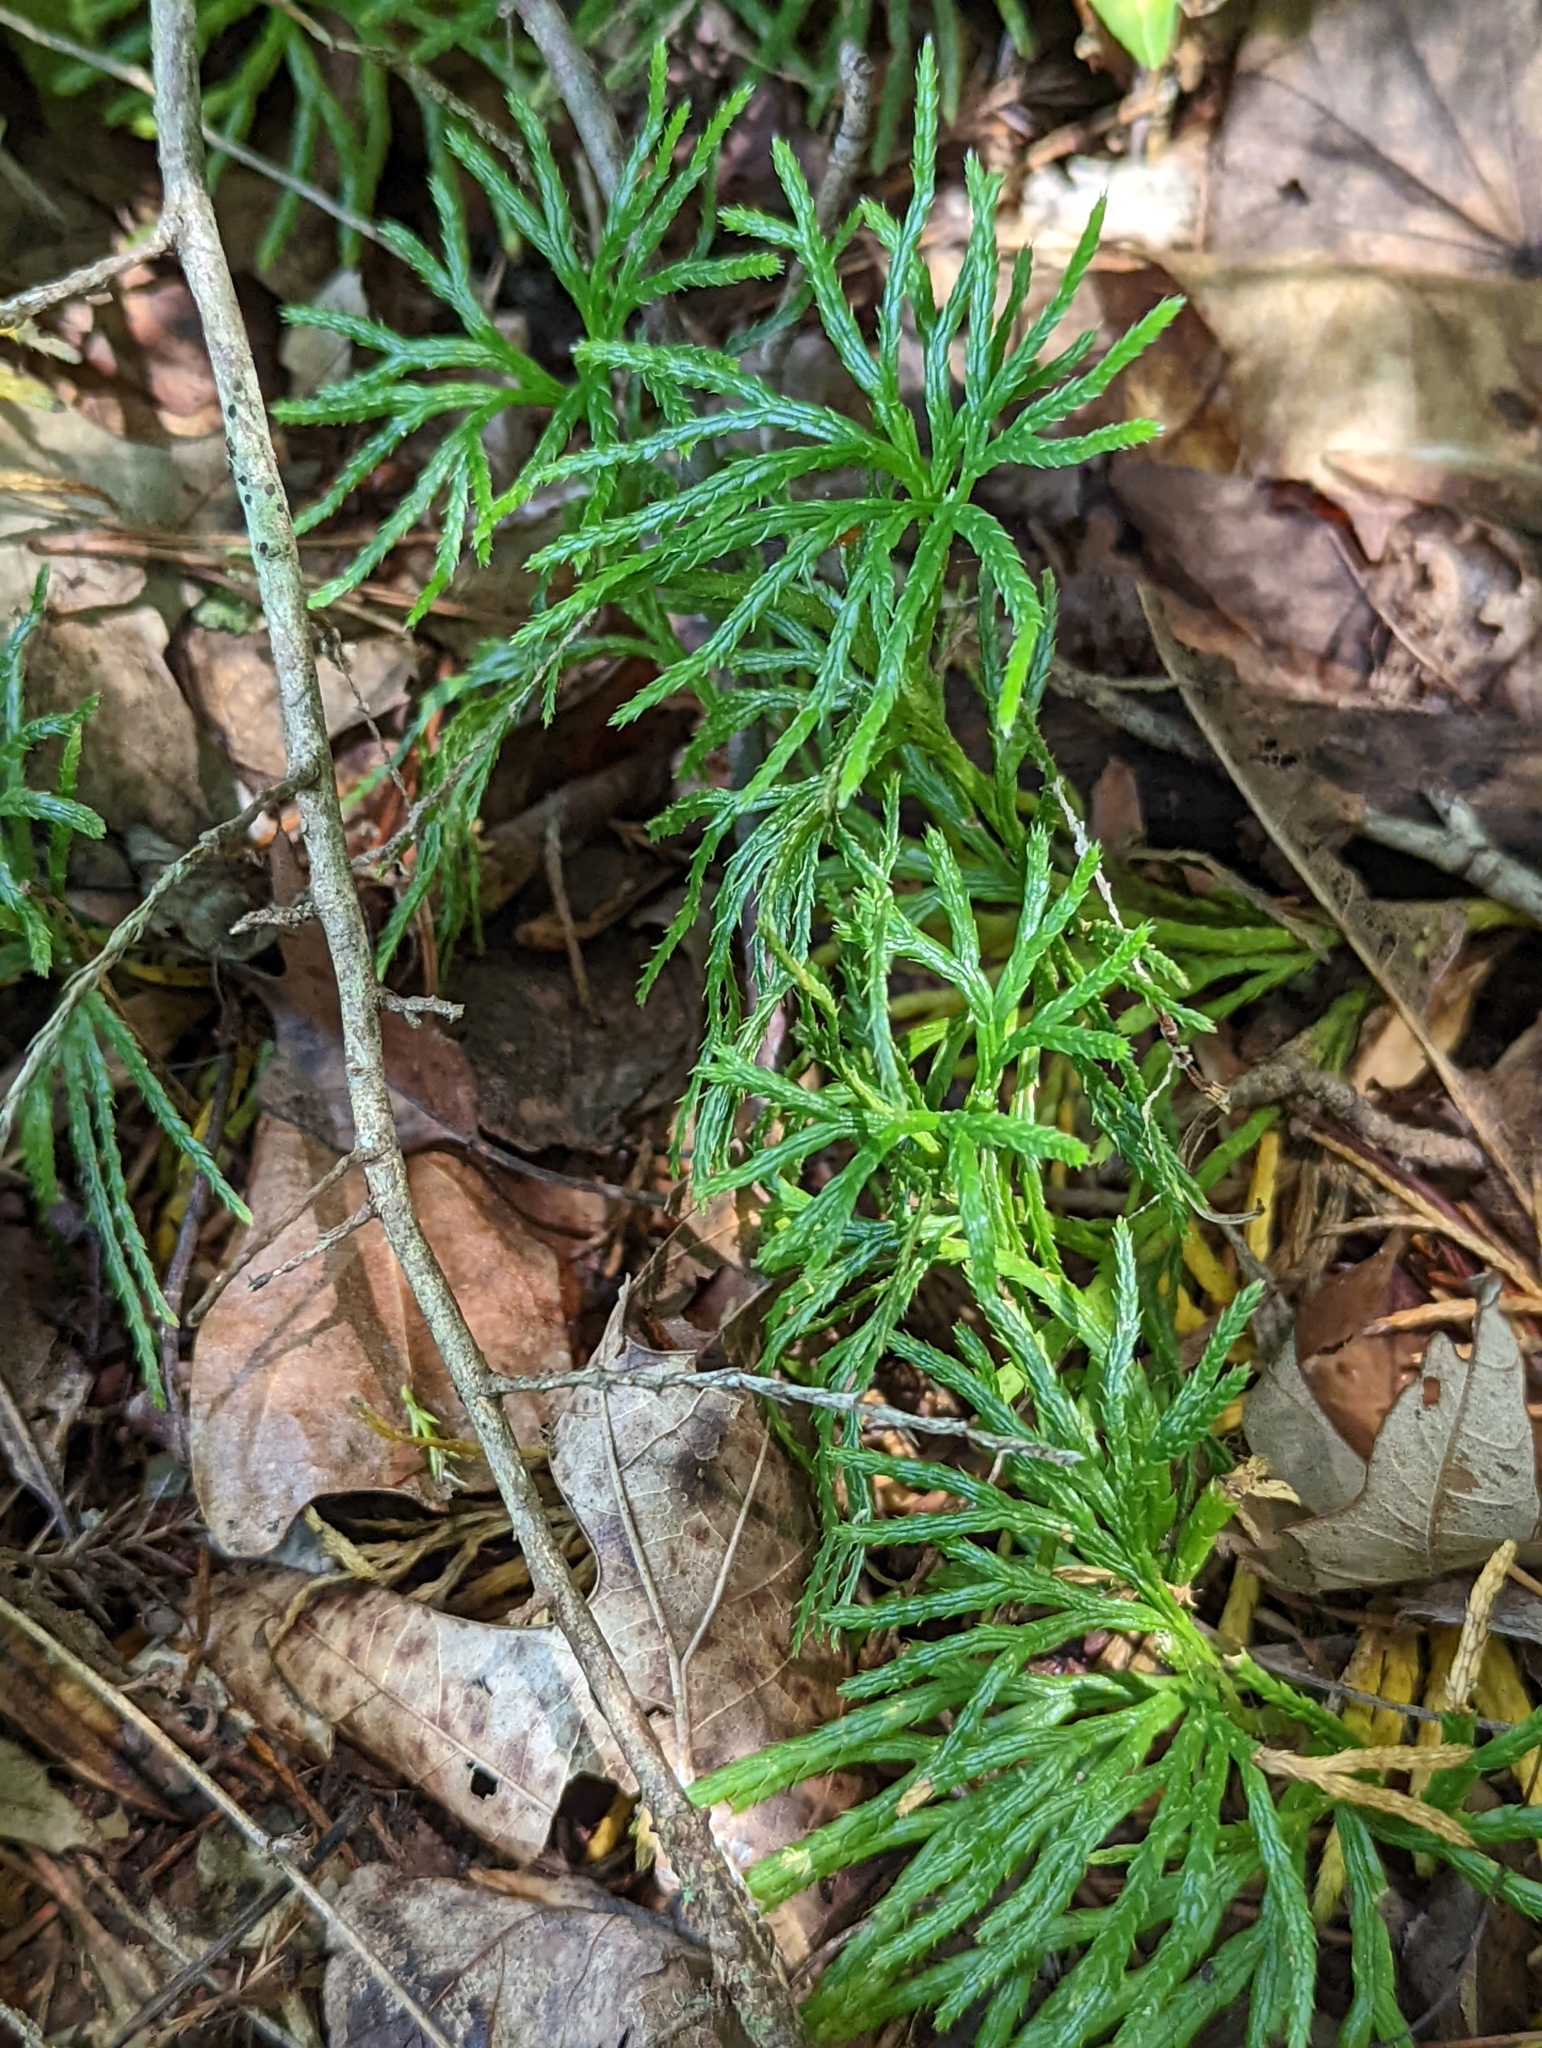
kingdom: Plantae
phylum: Tracheophyta
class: Lycopodiopsida
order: Lycopodiales
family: Lycopodiaceae
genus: Diphasiastrum
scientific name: Diphasiastrum digitatum
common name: Southern running-pine
